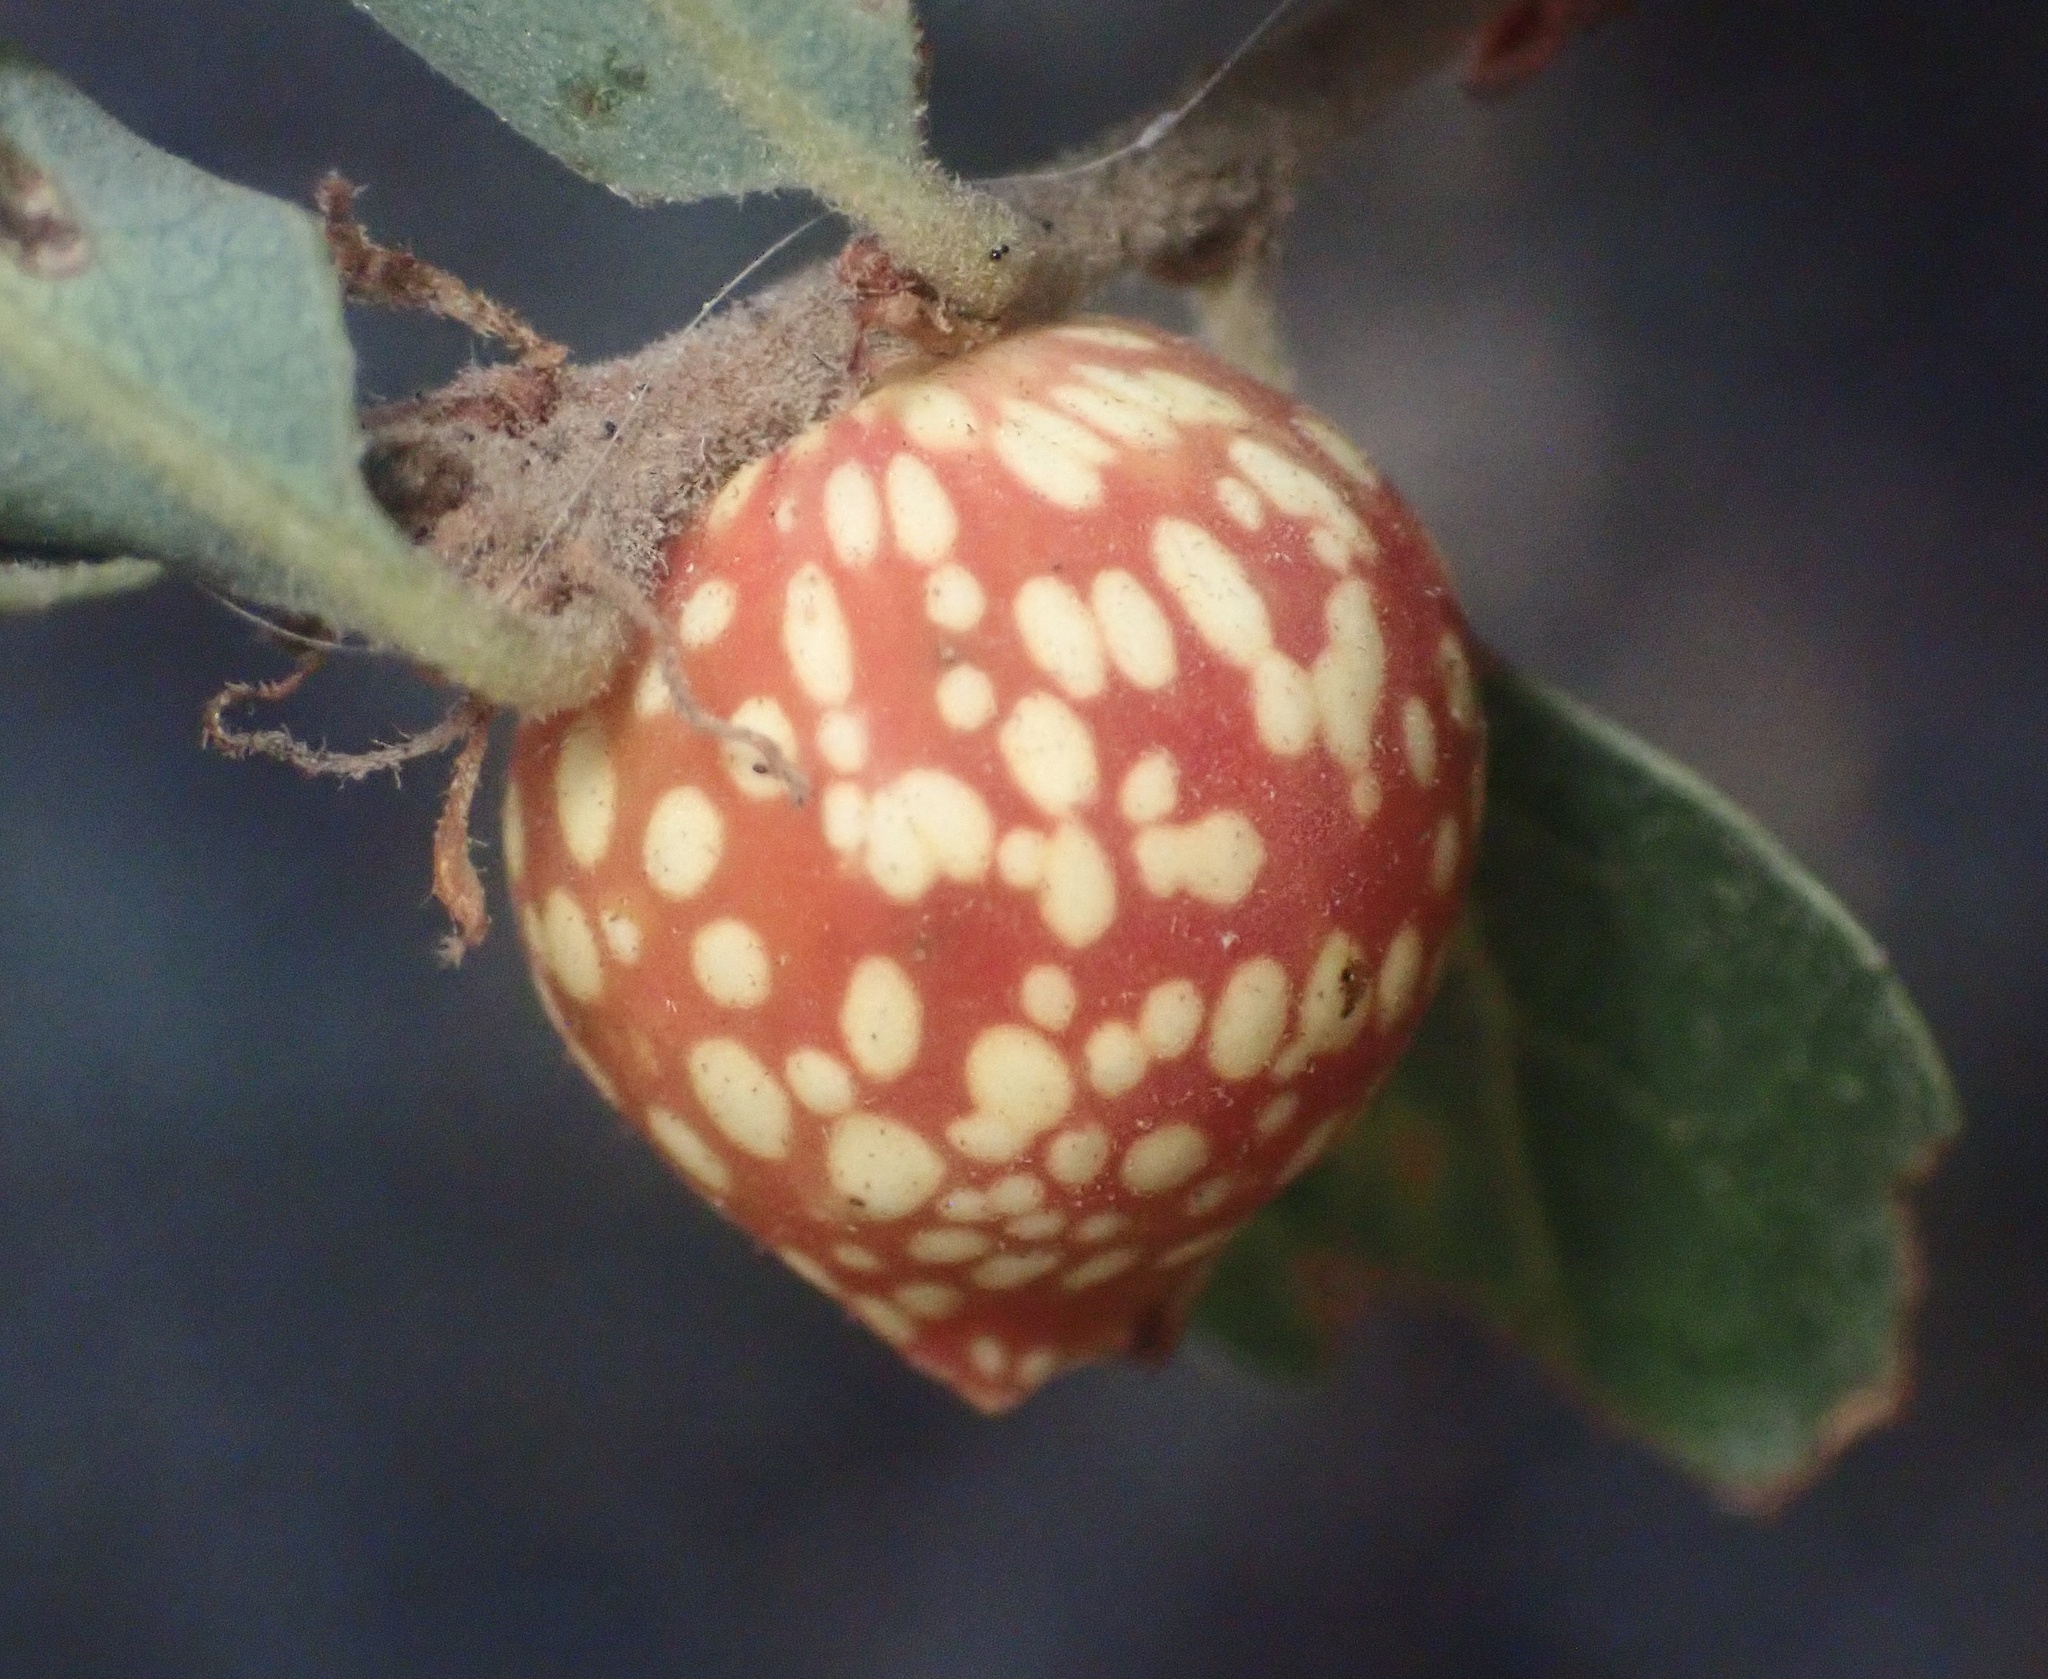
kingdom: Animalia
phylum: Arthropoda
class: Insecta
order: Hymenoptera
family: Cynipidae
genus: Burnettweldia
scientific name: Burnettweldia
